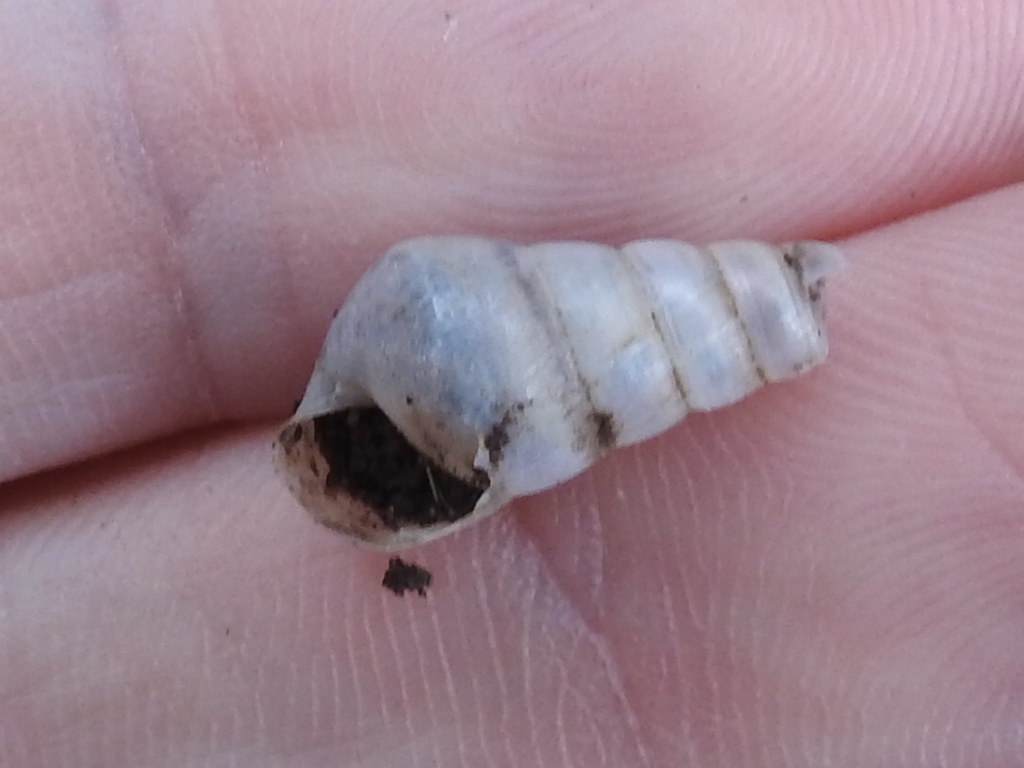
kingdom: Animalia
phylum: Mollusca
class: Gastropoda
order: Stylommatophora
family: Achatinidae
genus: Rumina
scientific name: Rumina decollata
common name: Decollate snail
